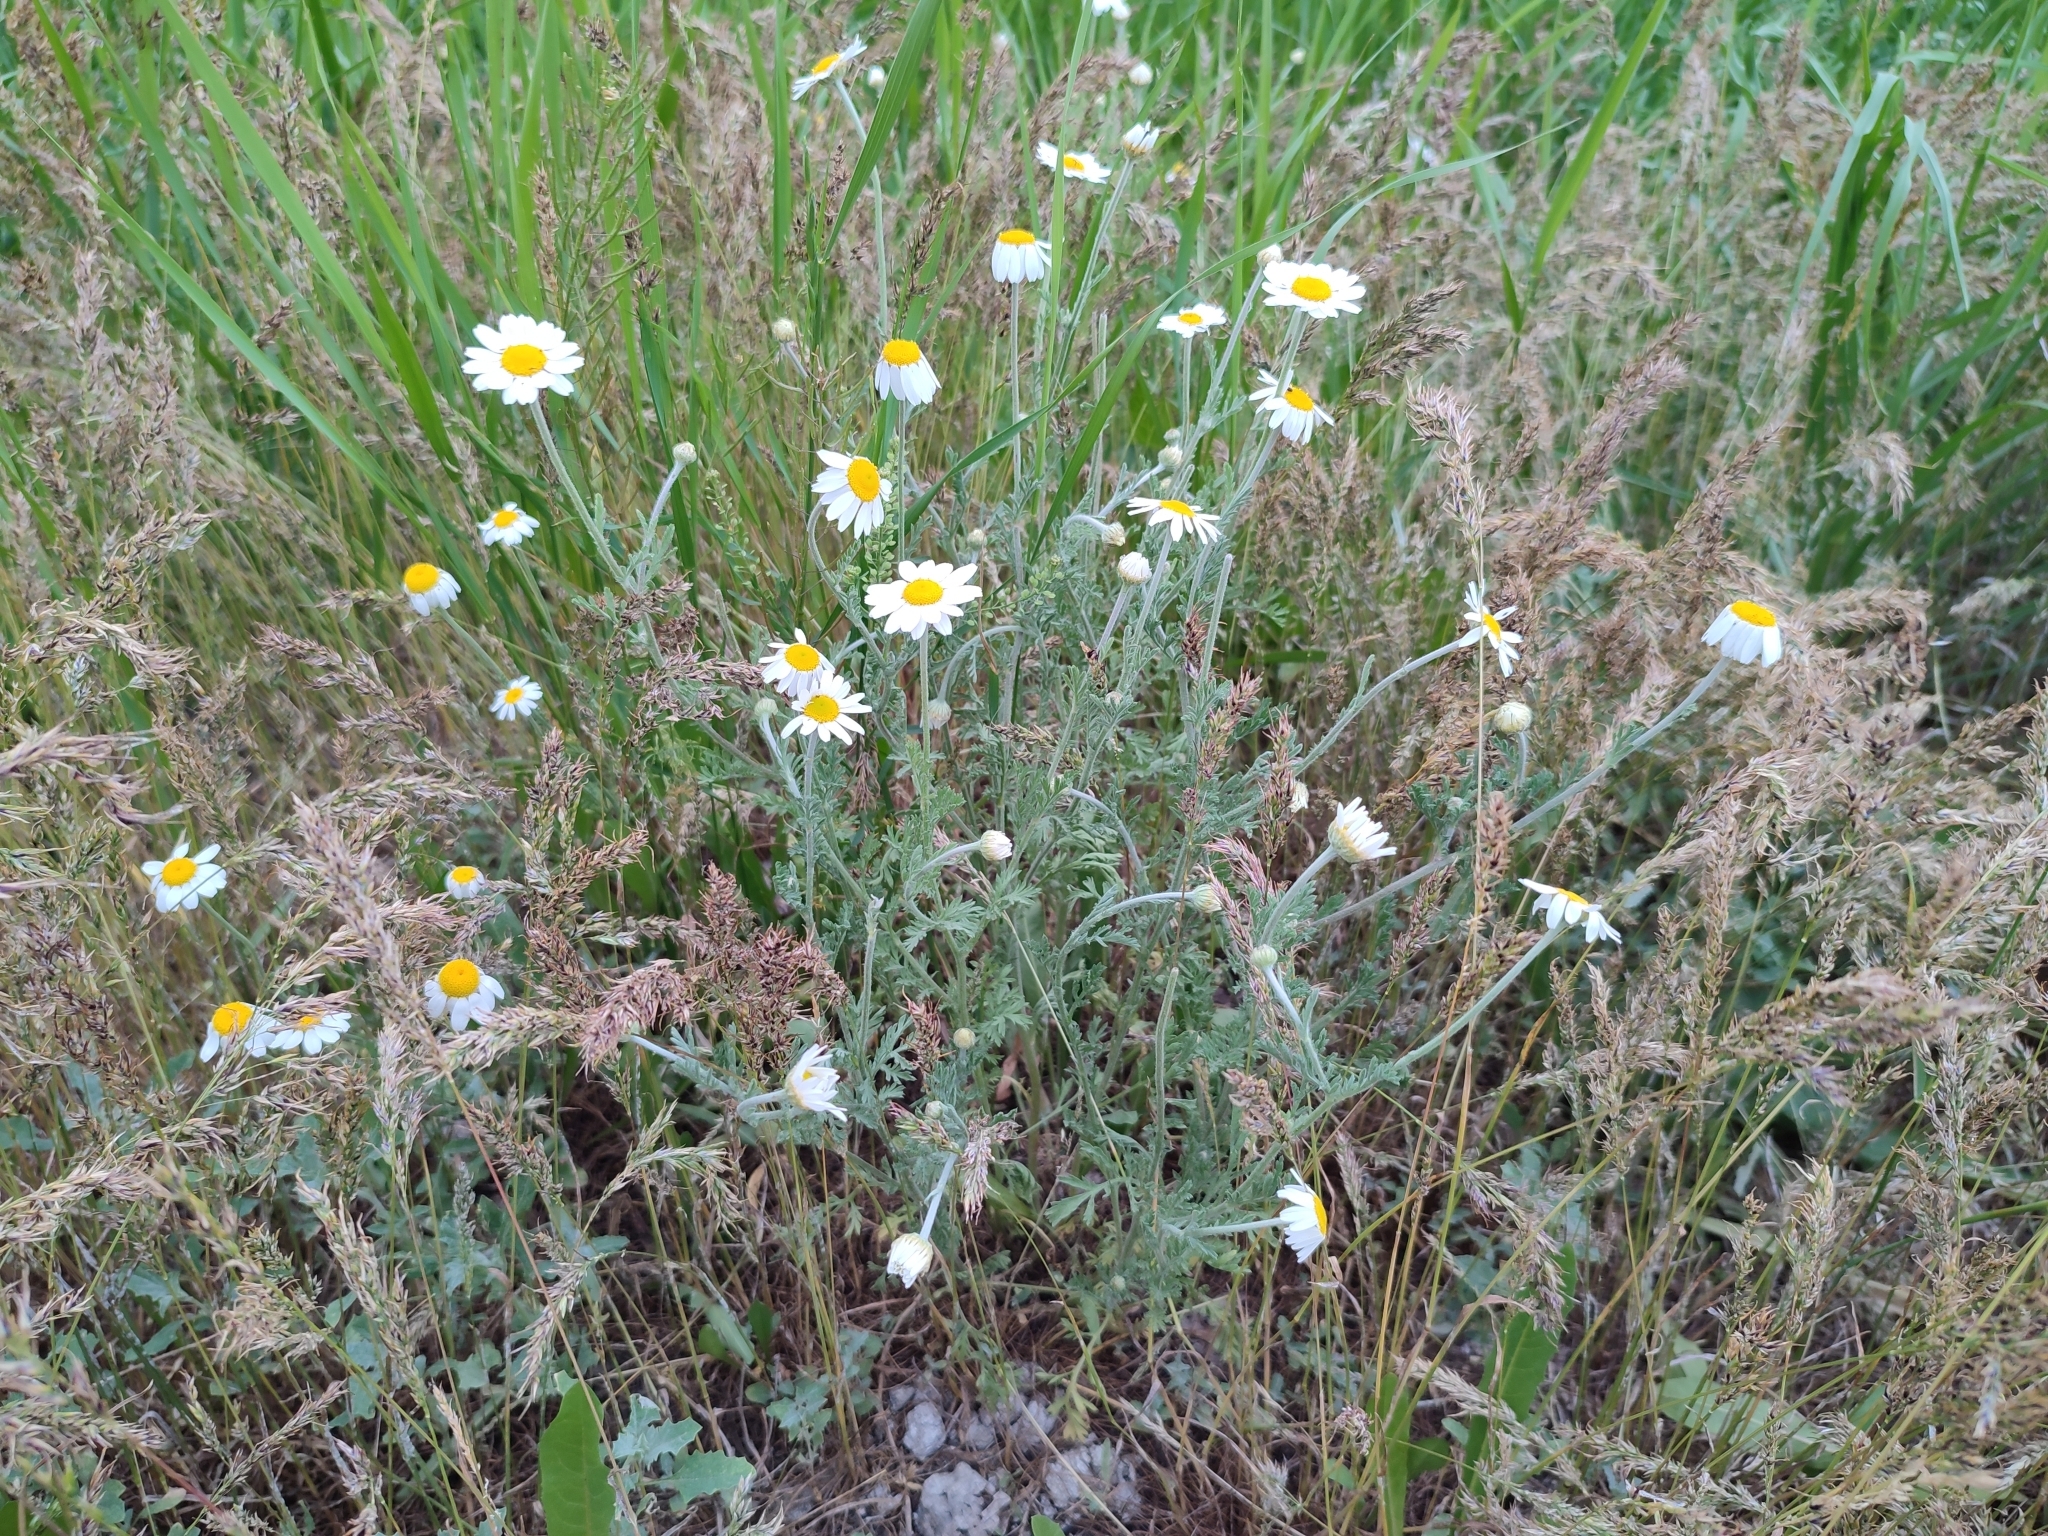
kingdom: Plantae
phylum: Tracheophyta
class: Magnoliopsida
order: Asterales
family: Asteraceae
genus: Anthemis
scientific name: Anthemis ruthenica
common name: Eastern chamomile
